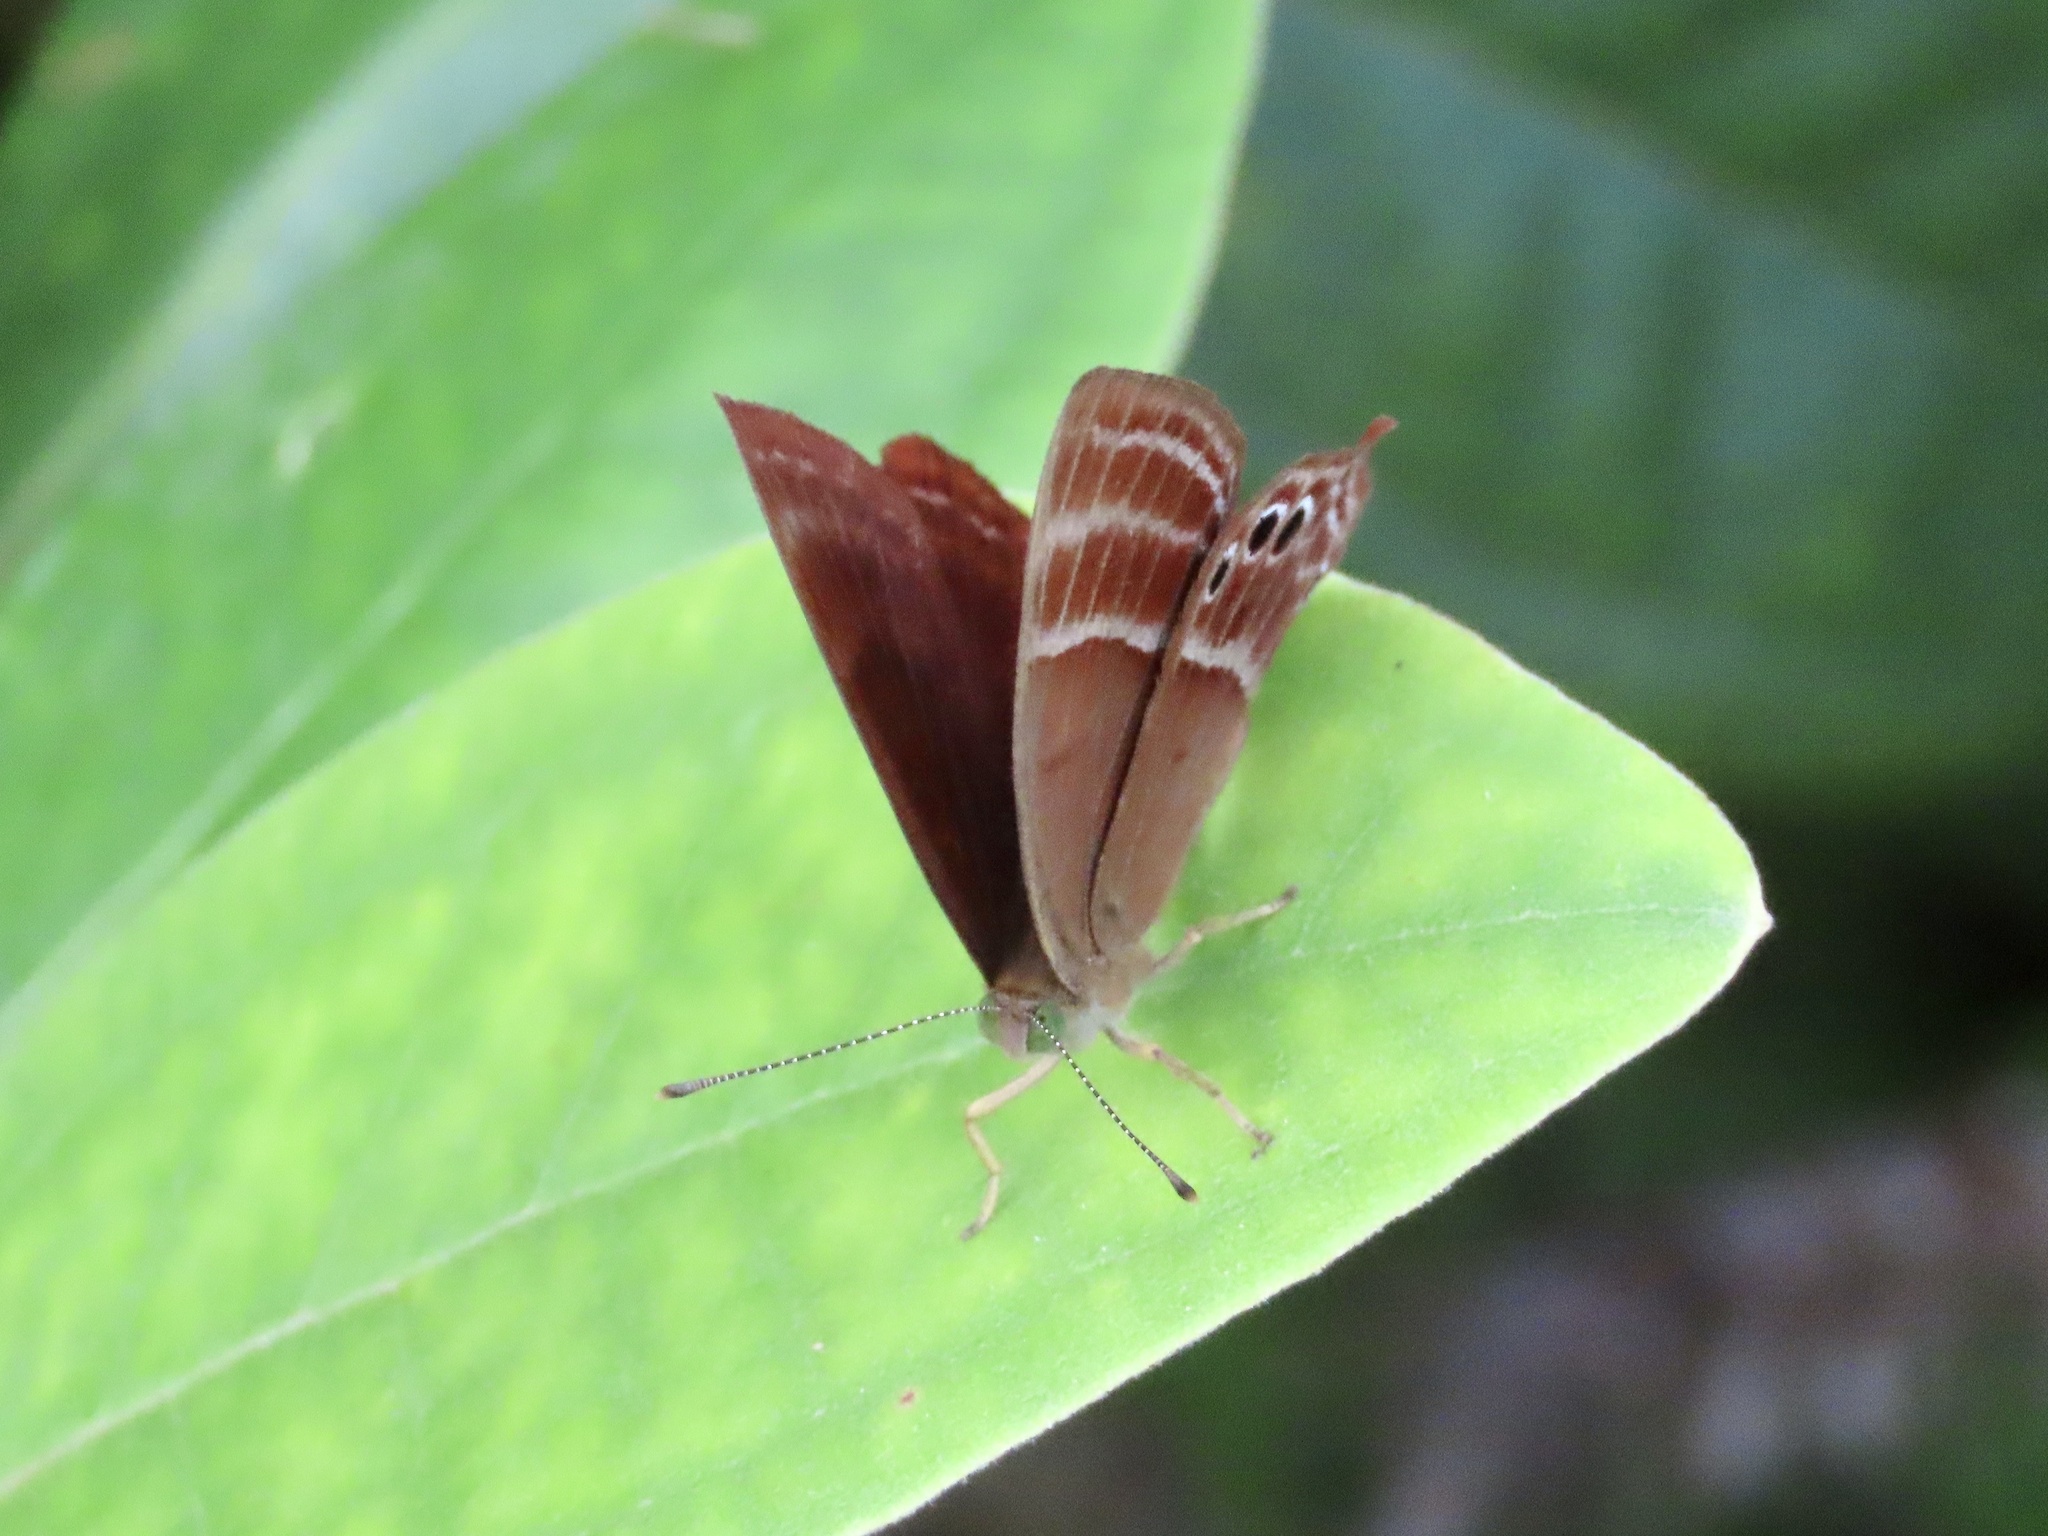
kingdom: Animalia
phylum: Arthropoda
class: Insecta
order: Lepidoptera
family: Lycaenidae
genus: Abisara
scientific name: Abisara echeria
